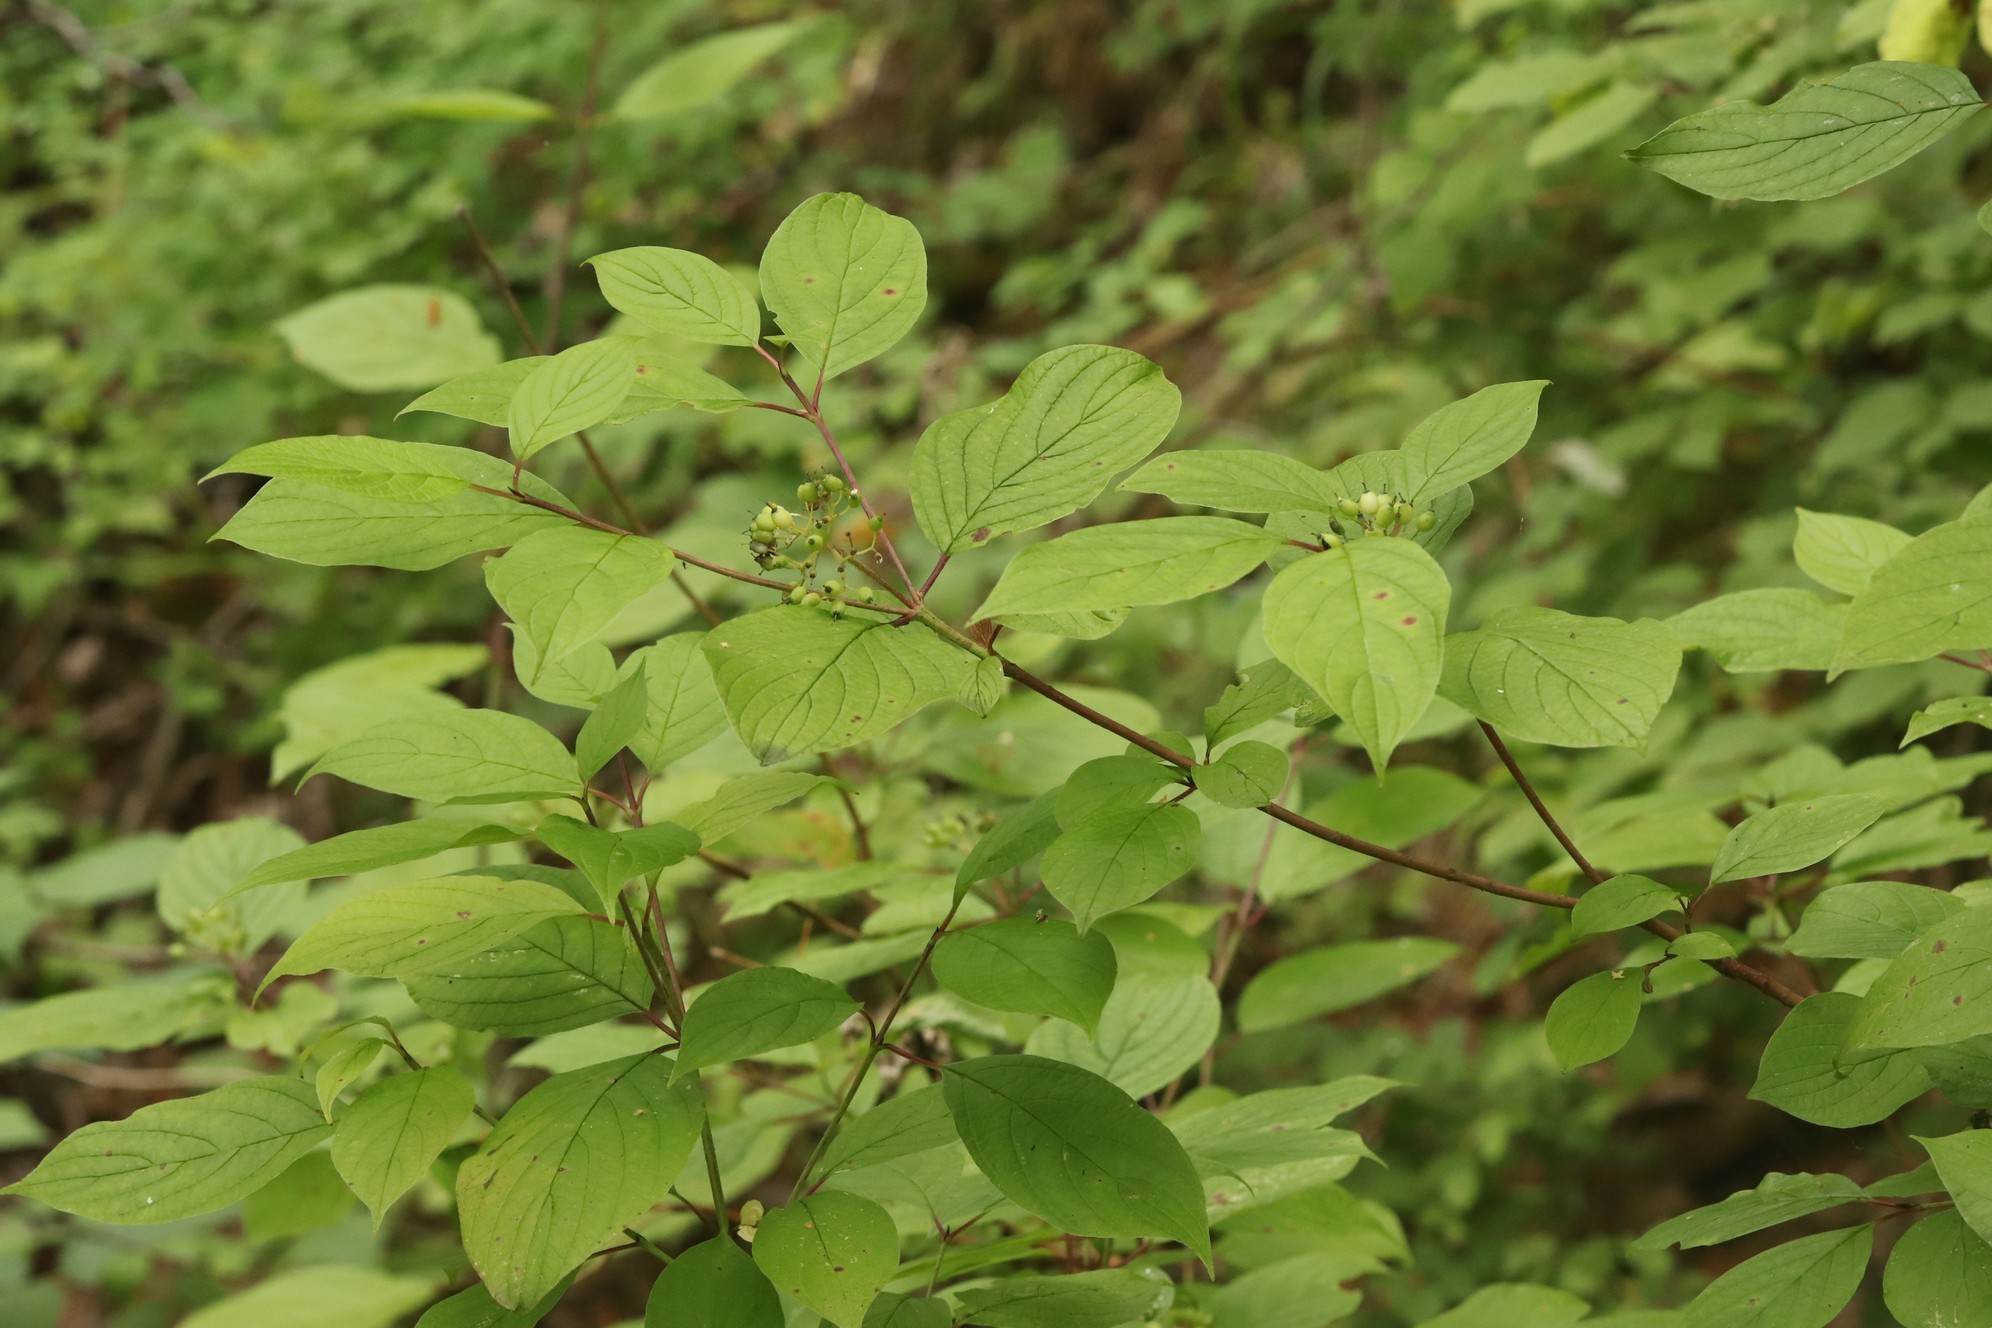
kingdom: Plantae
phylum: Tracheophyta
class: Magnoliopsida
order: Cornales
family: Cornaceae
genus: Cornus
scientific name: Cornus alba
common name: White dogwood
